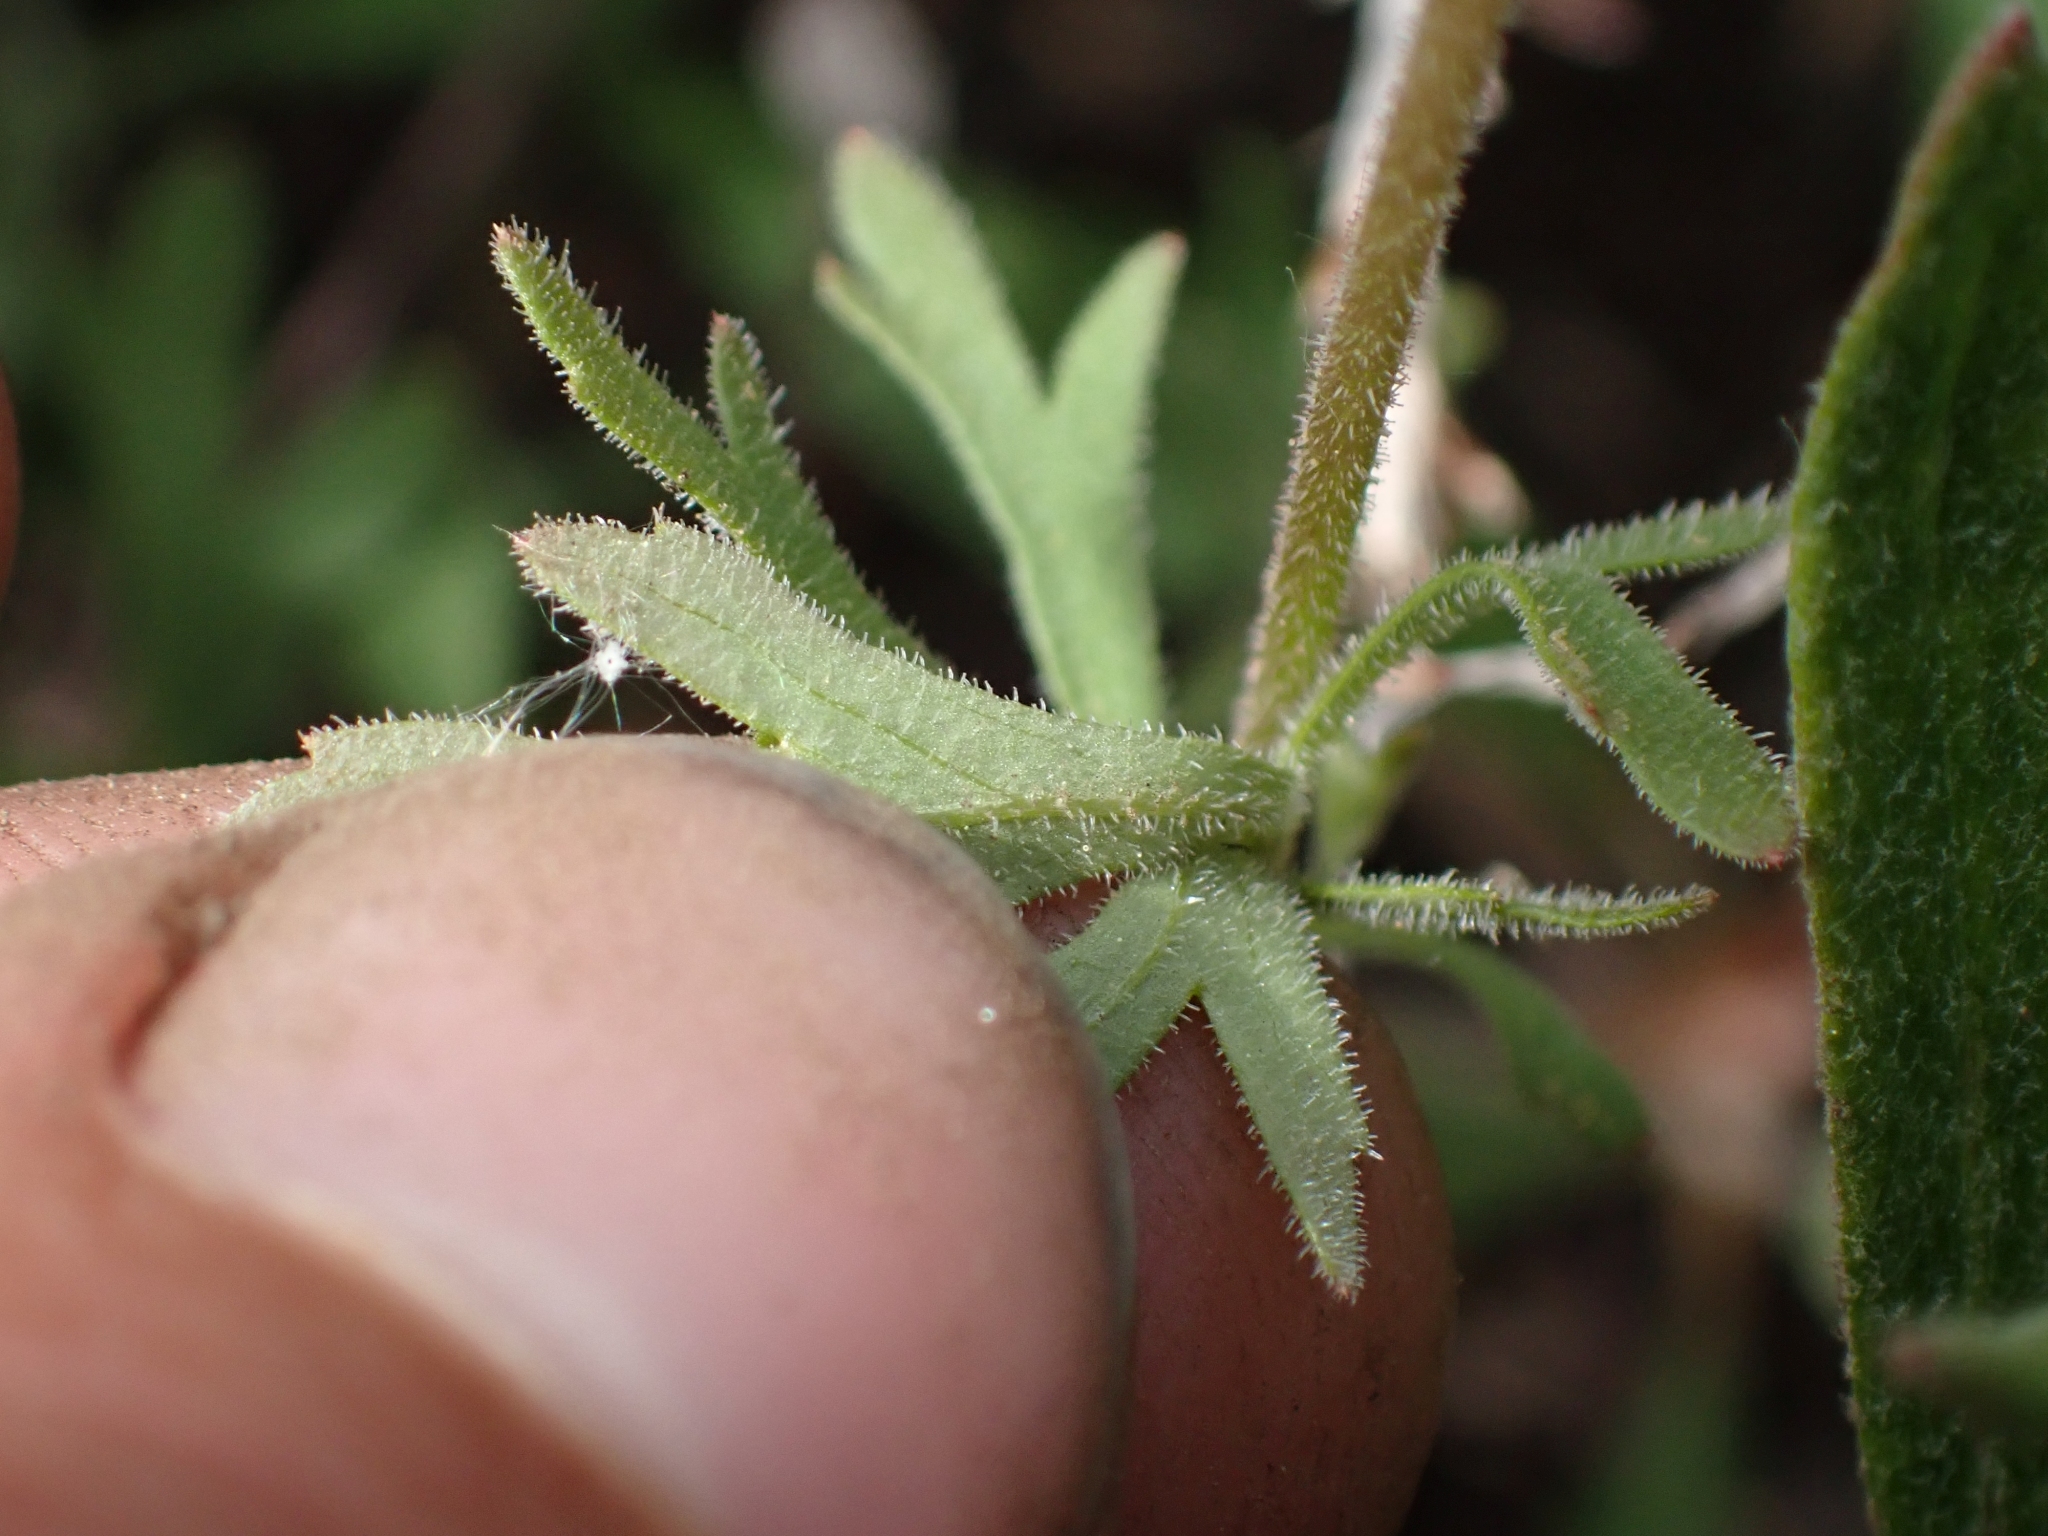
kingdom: Plantae
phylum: Tracheophyta
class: Magnoliopsida
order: Saxifragales
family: Saxifragaceae
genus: Lithophragma
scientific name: Lithophragma parviflorum
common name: Small-flowered fringe-cup
